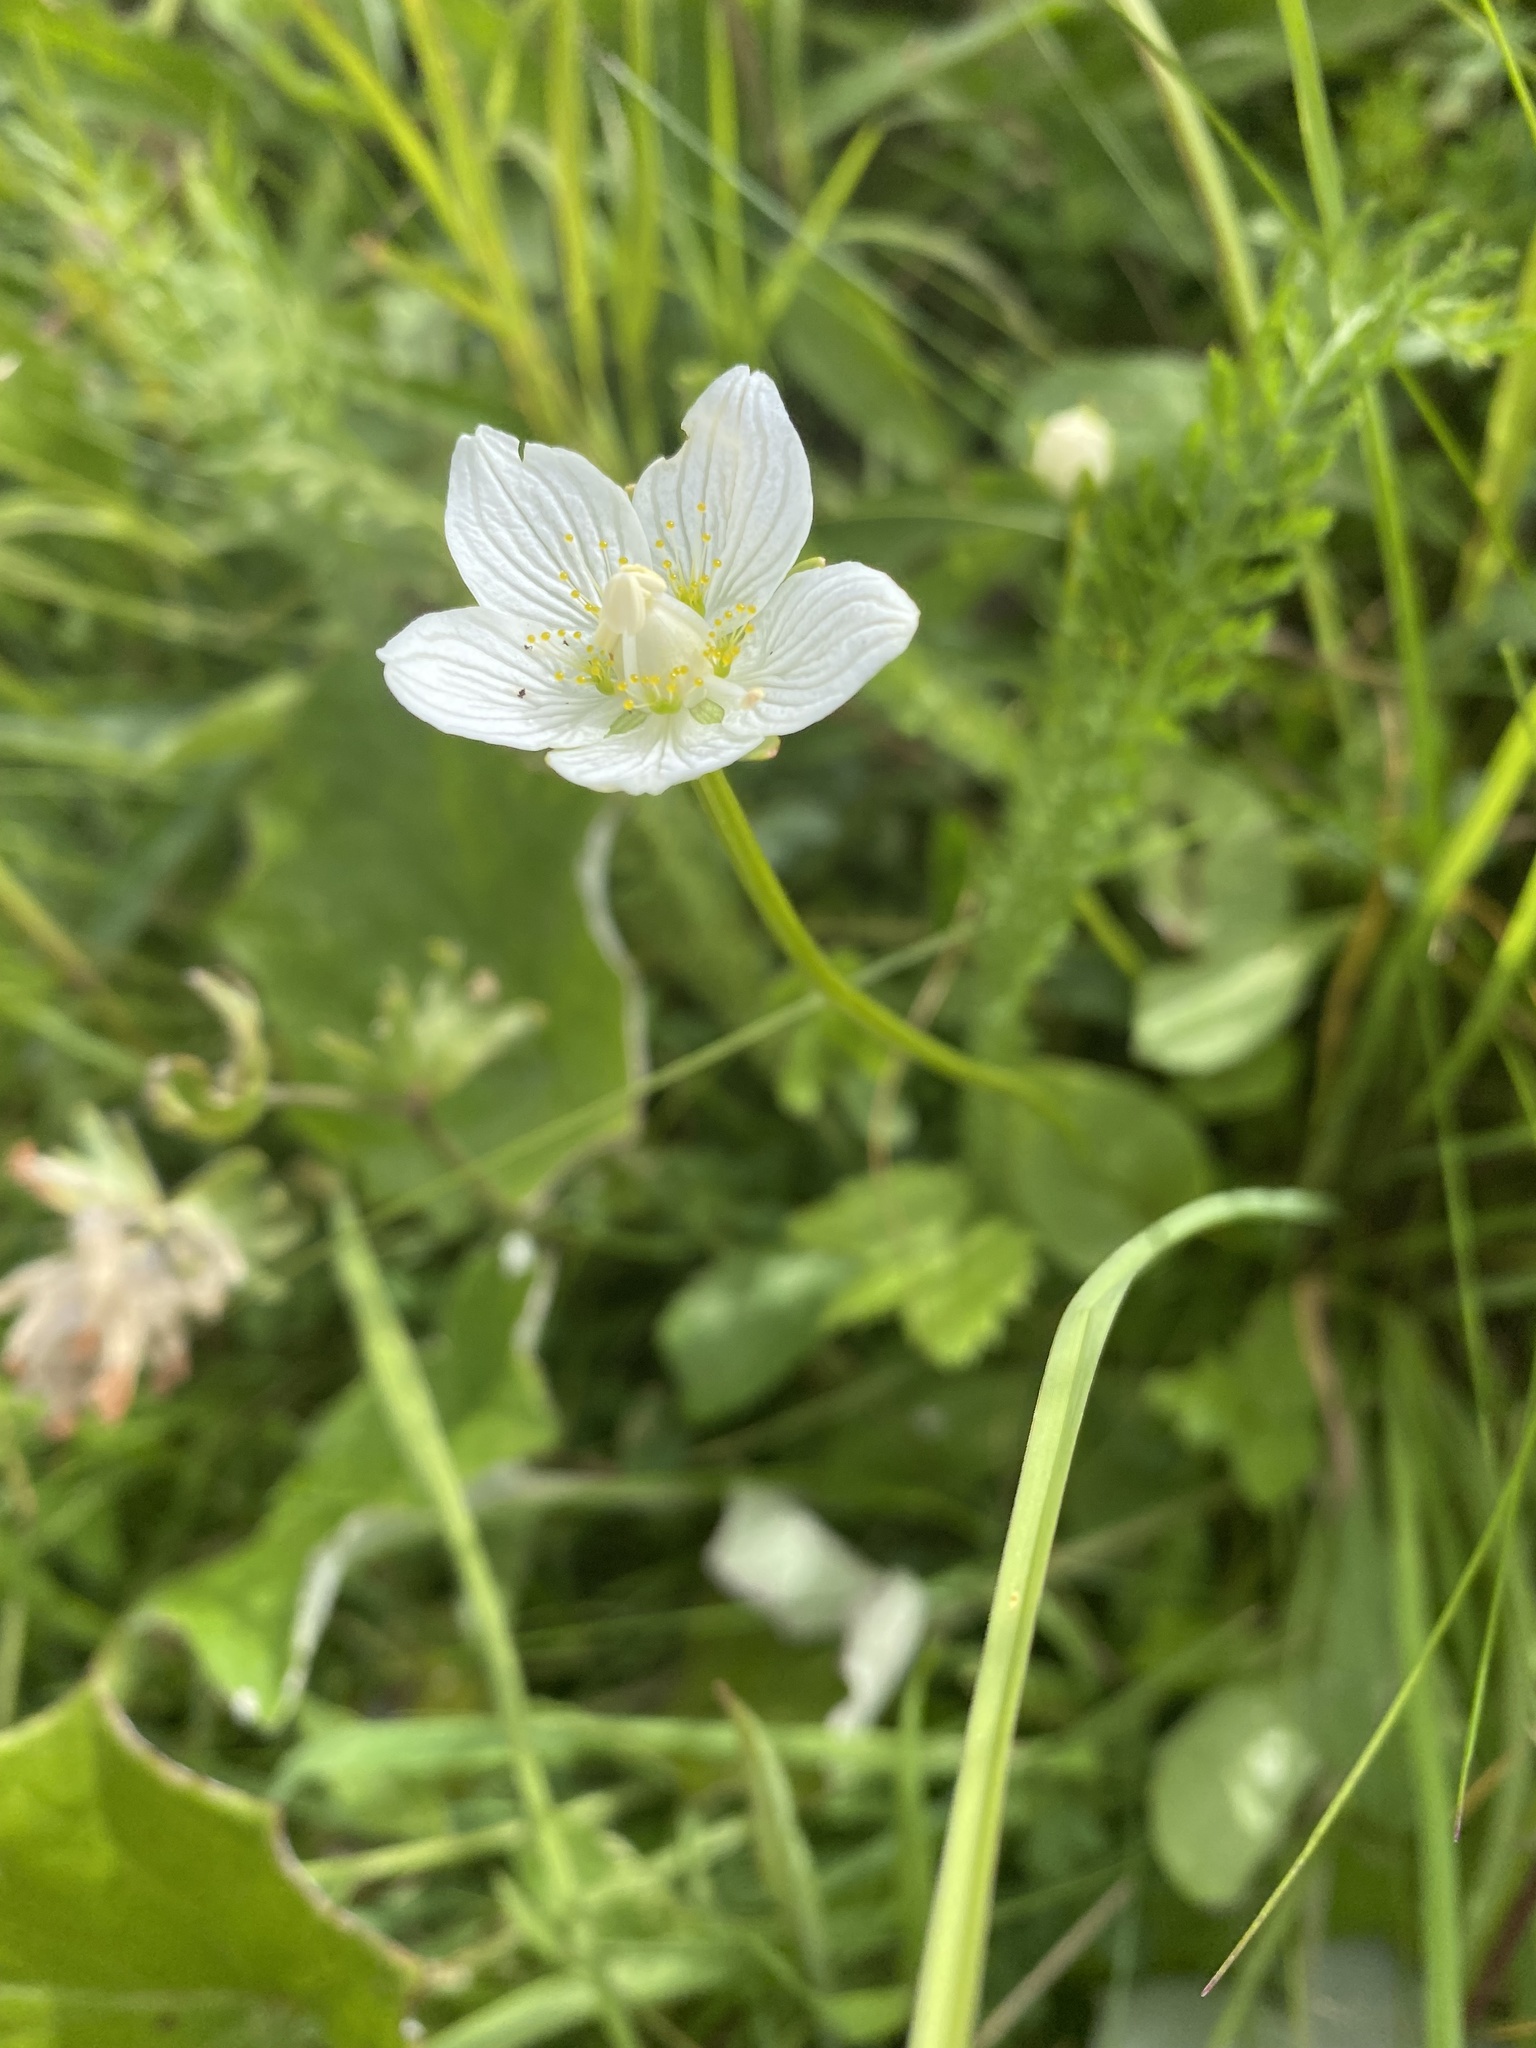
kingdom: Plantae
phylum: Tracheophyta
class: Magnoliopsida
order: Celastrales
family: Parnassiaceae
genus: Parnassia
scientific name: Parnassia palustris
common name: Grass-of-parnassus
